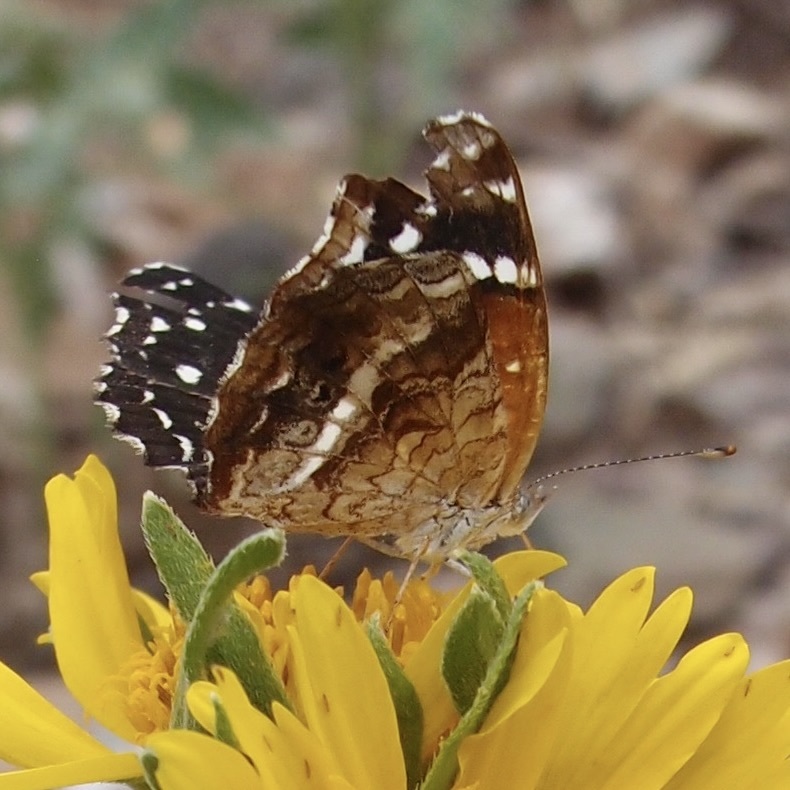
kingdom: Animalia
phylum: Arthropoda
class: Insecta
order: Lepidoptera
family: Nymphalidae
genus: Anthanassa
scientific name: Anthanassa texana
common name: Texan crescent
